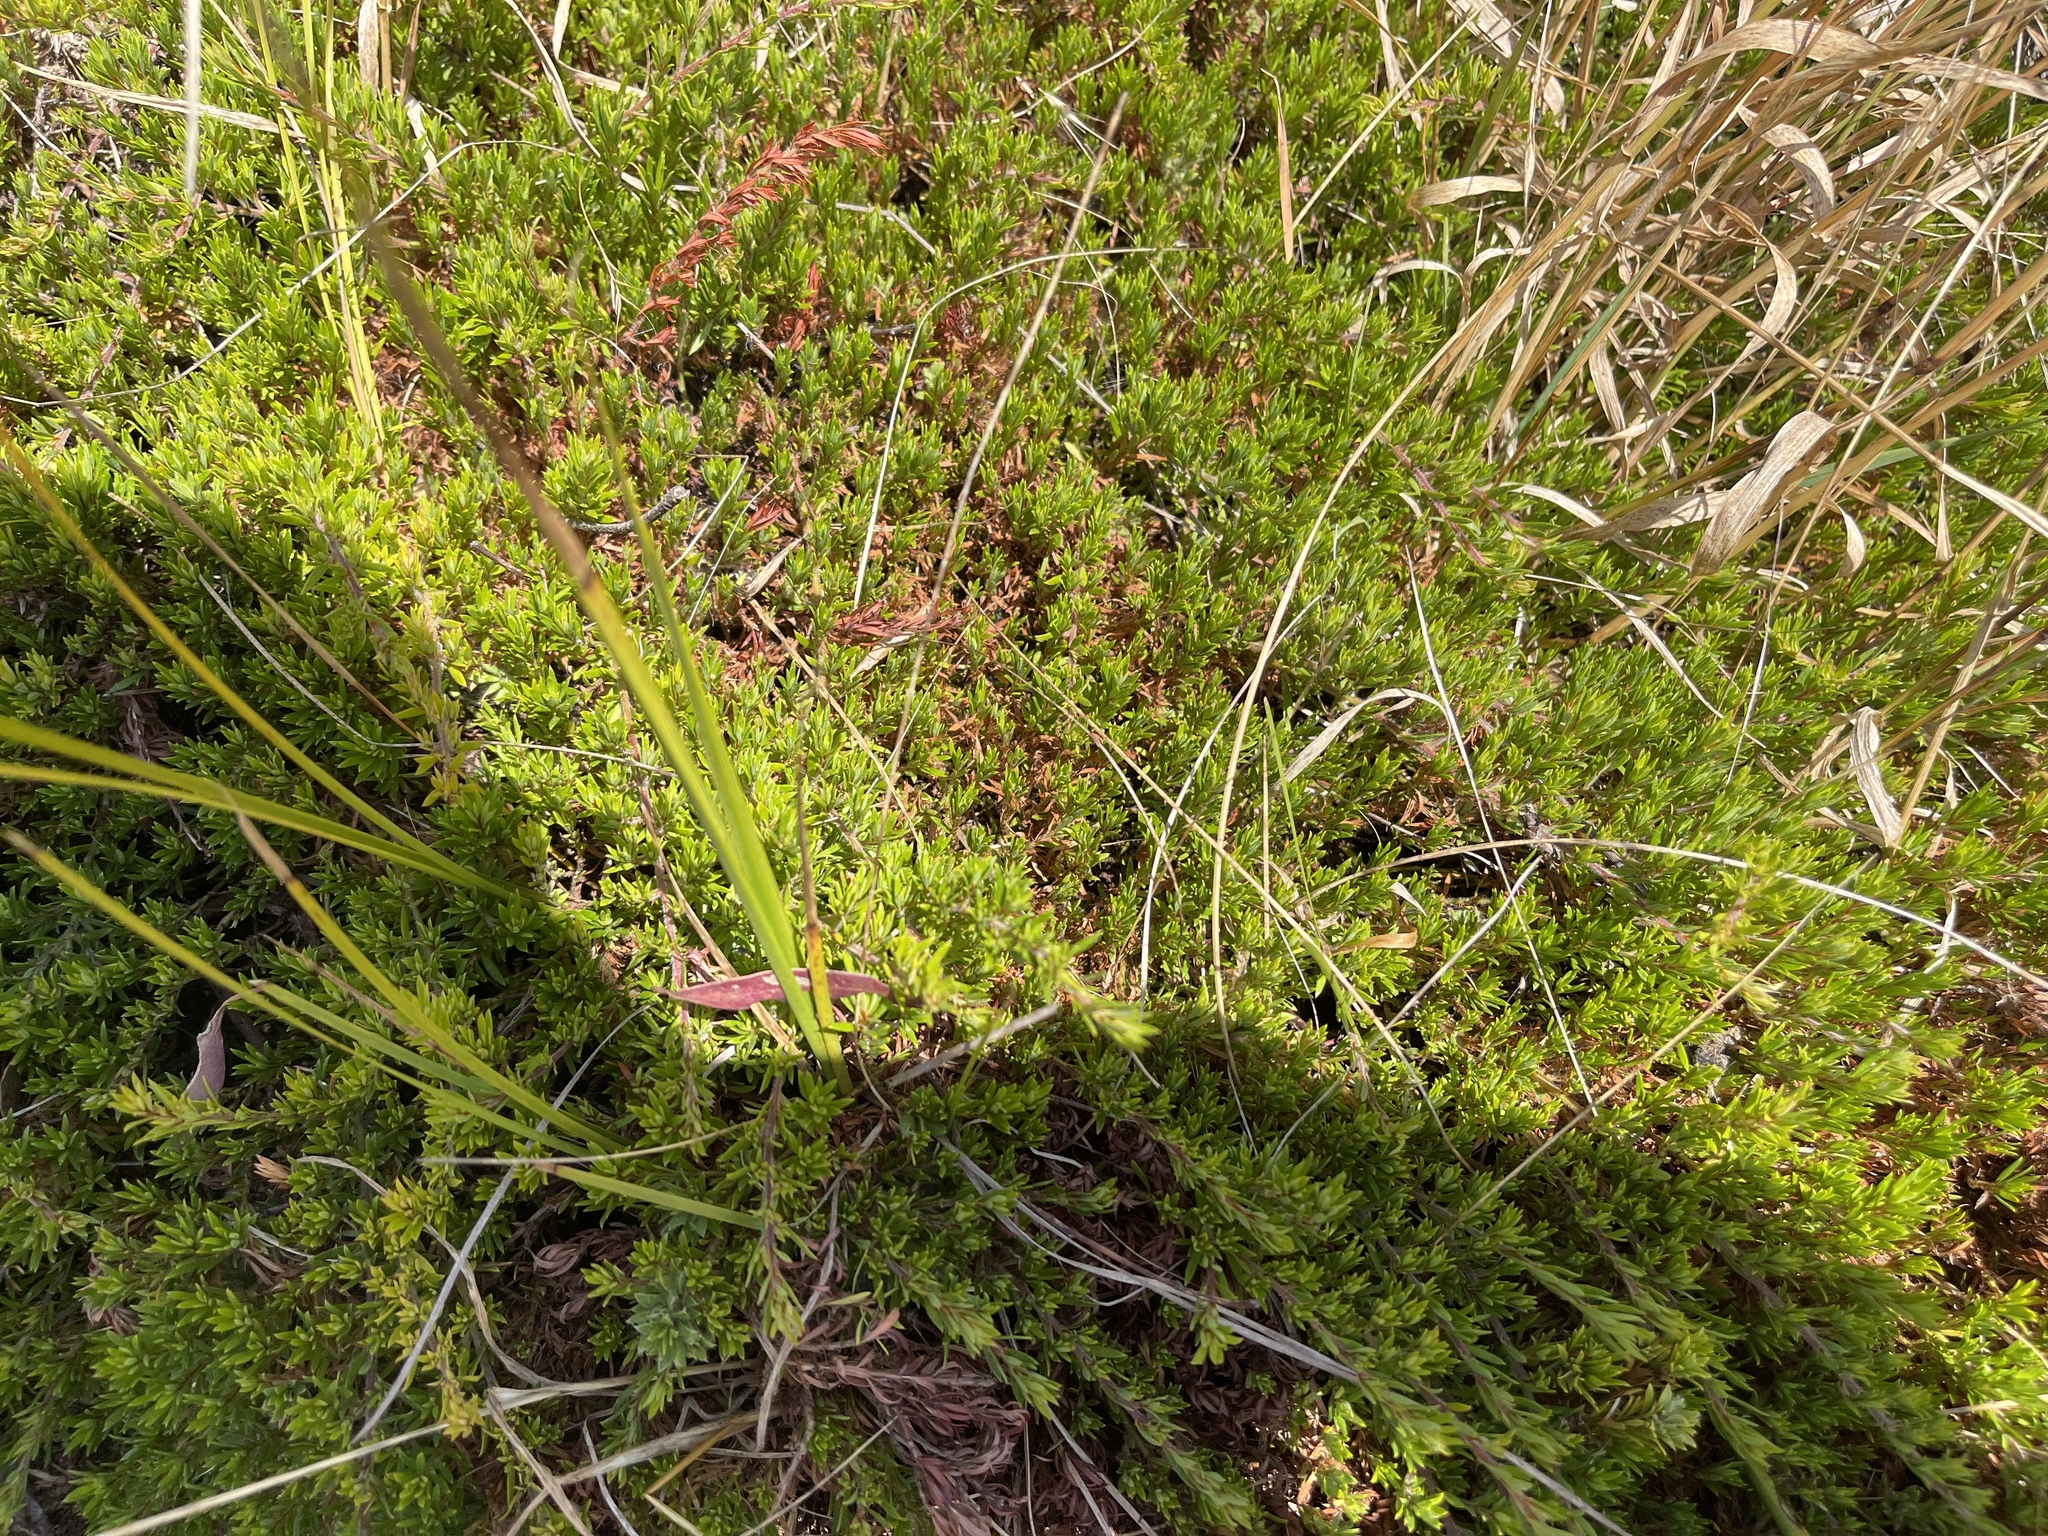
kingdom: Plantae
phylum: Tracheophyta
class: Magnoliopsida
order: Fabales
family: Fabaceae
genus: Pultenaea
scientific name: Pultenaea pedunculata
